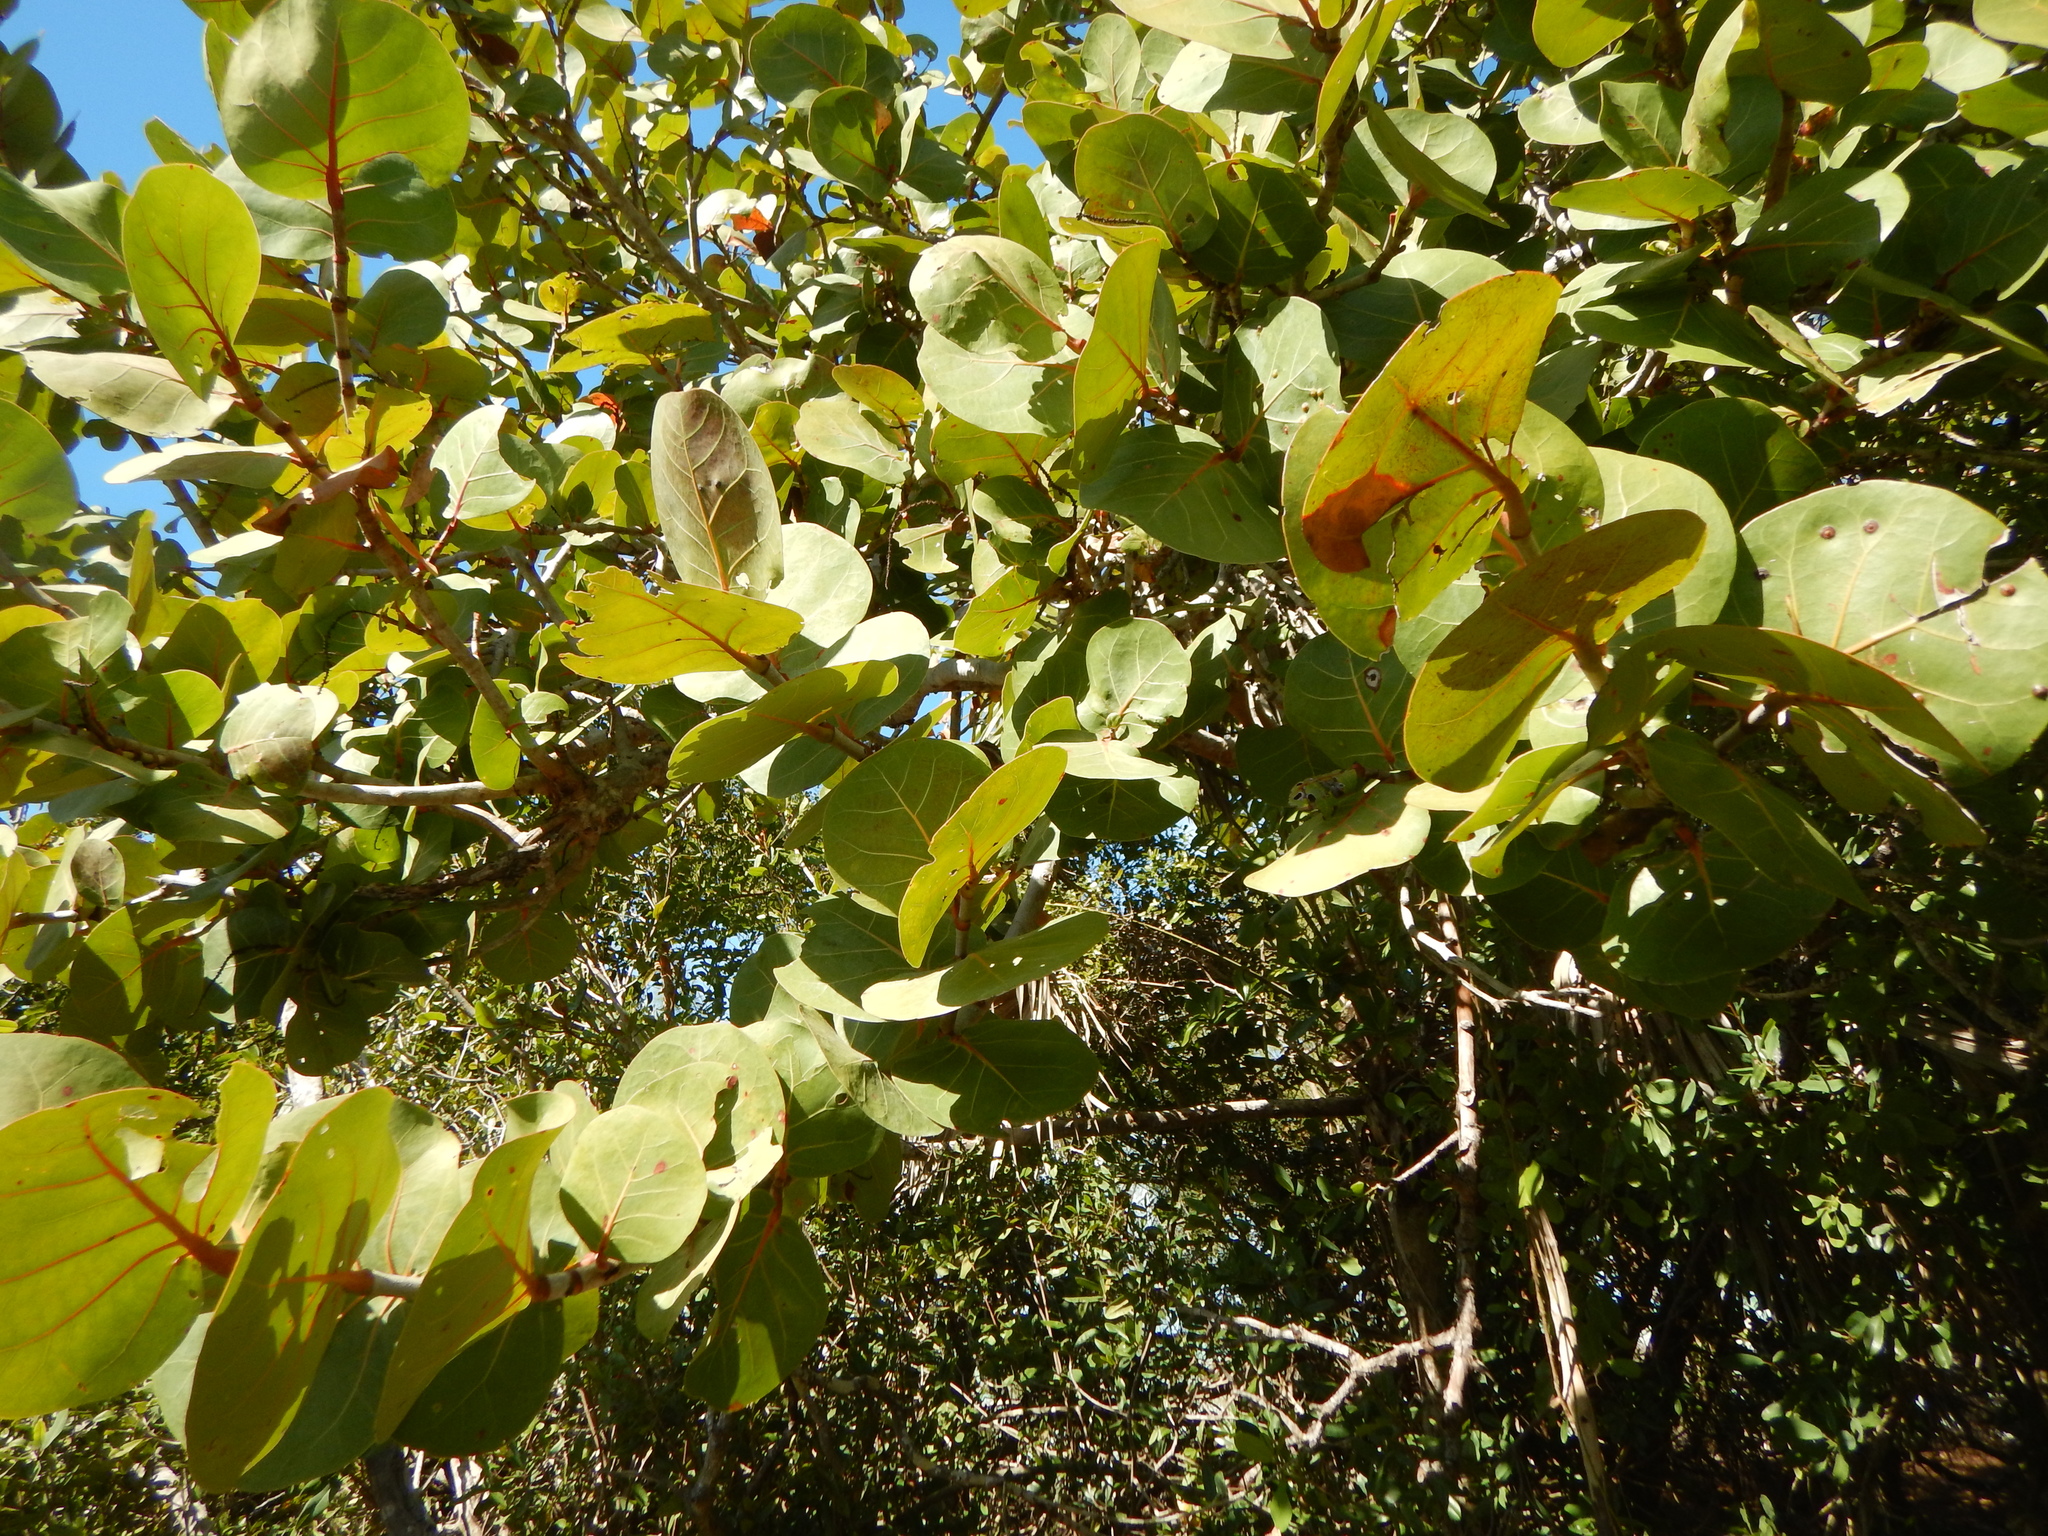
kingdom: Plantae
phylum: Tracheophyta
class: Magnoliopsida
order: Caryophyllales
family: Polygonaceae
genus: Coccoloba
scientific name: Coccoloba uvifera
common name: Seagrape
